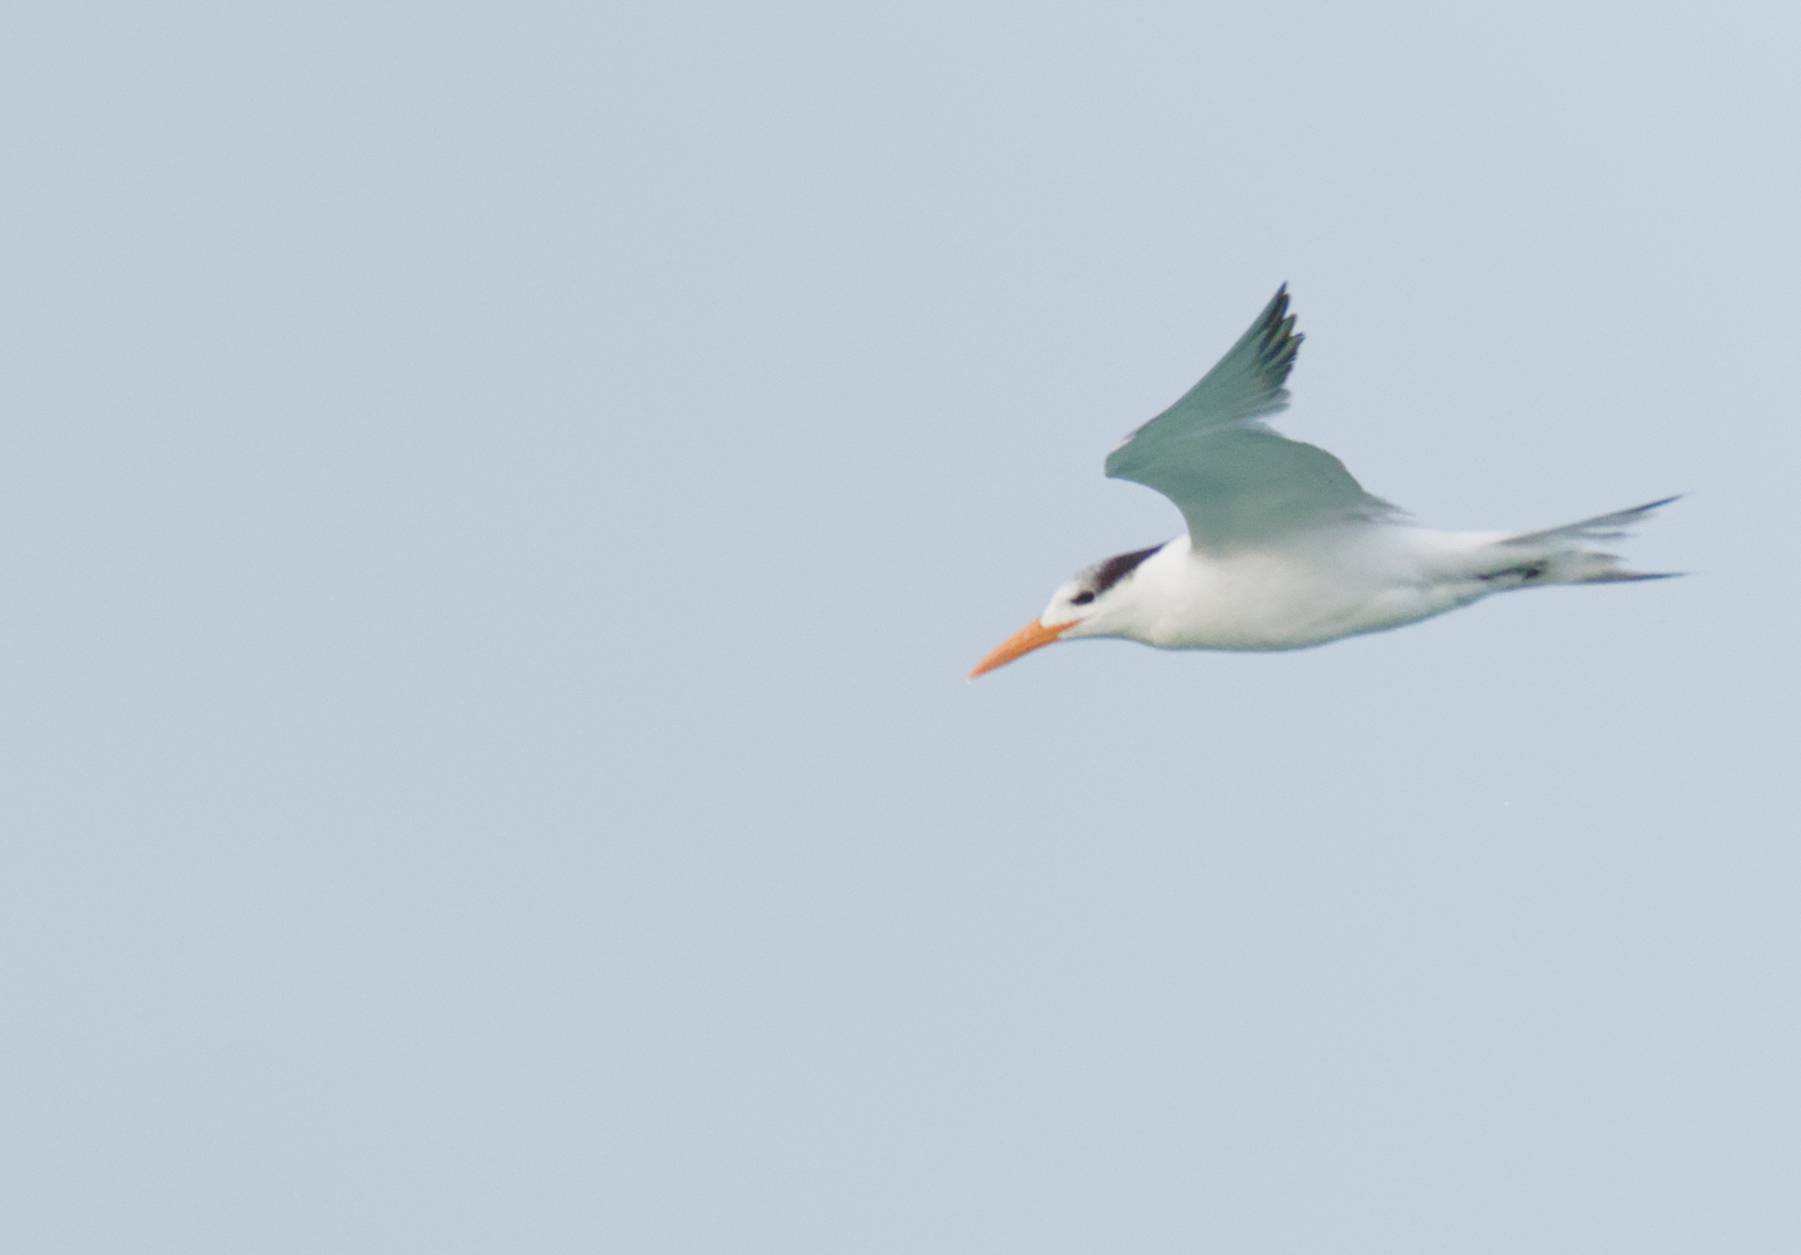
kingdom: Animalia
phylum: Chordata
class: Aves
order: Charadriiformes
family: Laridae
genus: Thalasseus
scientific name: Thalasseus maximus
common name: Royal tern
